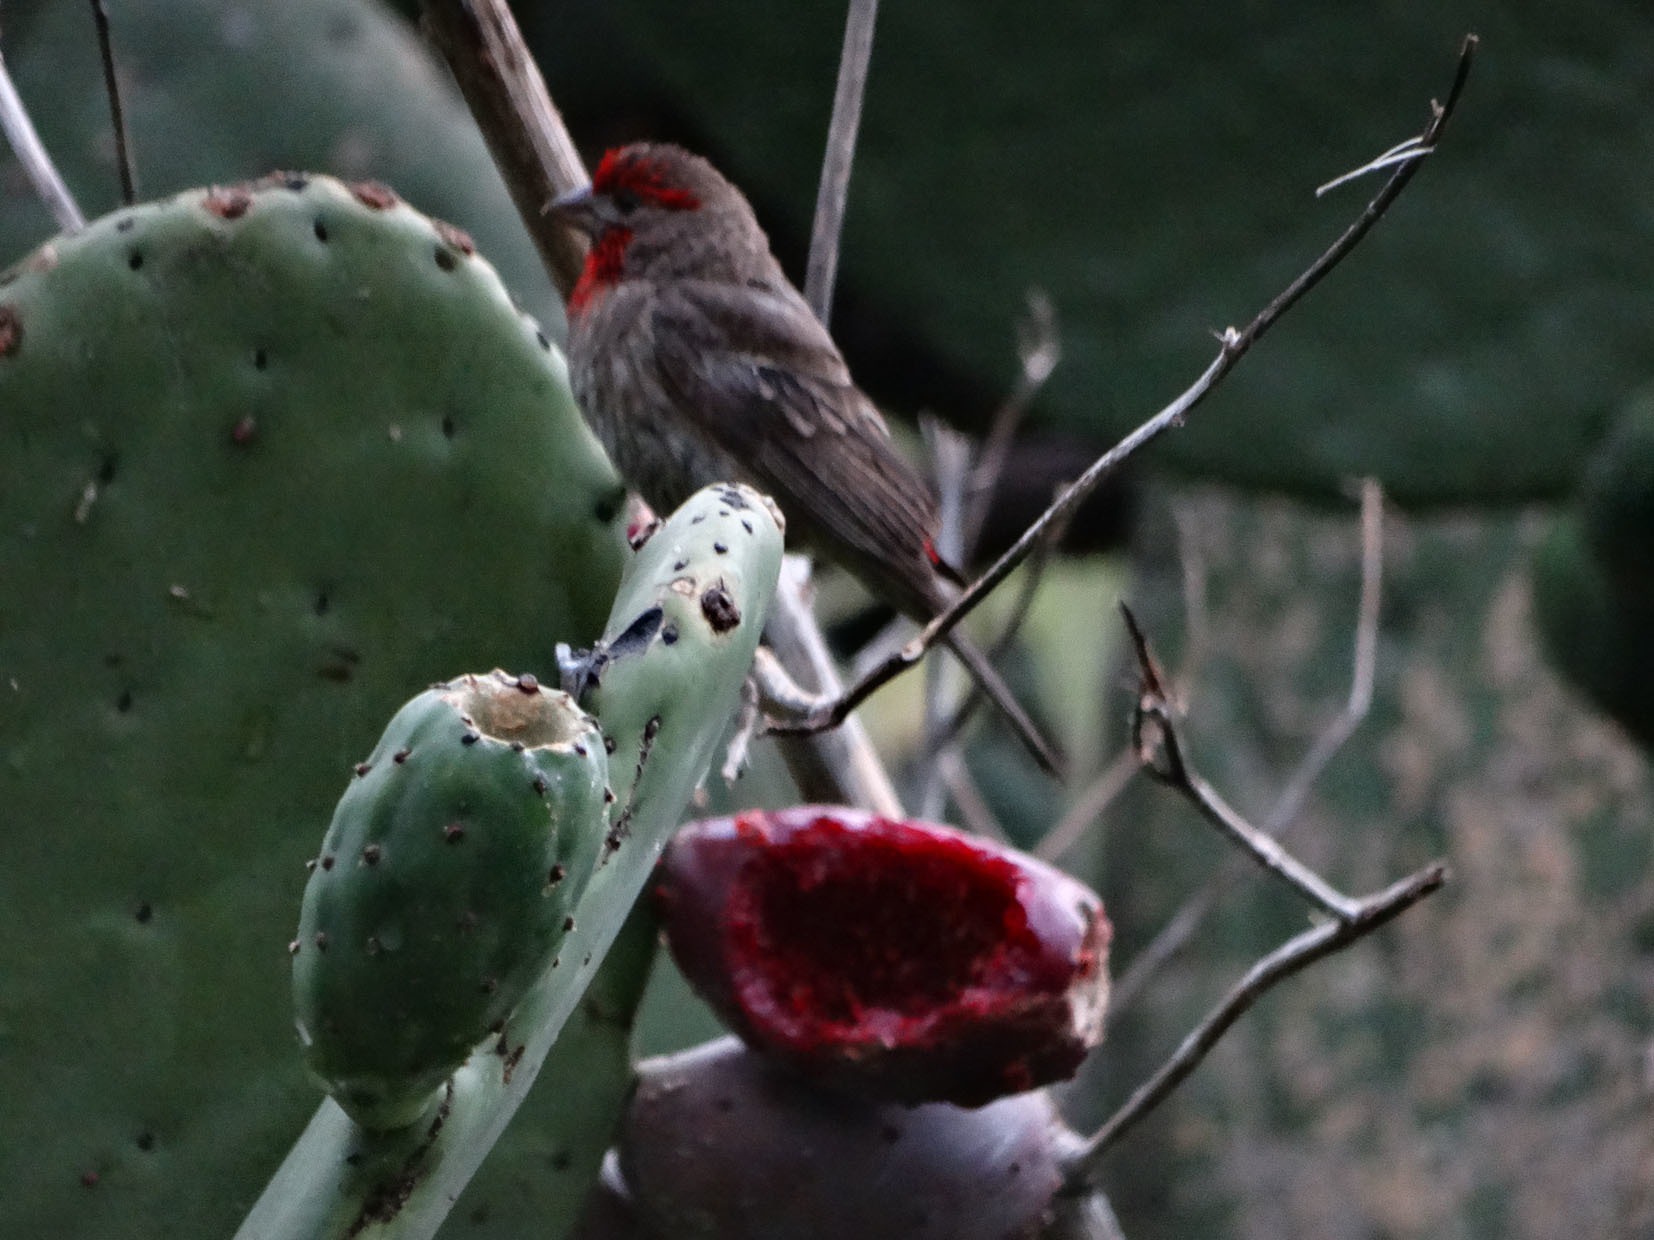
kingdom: Animalia
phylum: Chordata
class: Aves
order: Passeriformes
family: Fringillidae
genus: Haemorhous
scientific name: Haemorhous mexicanus
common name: House finch
